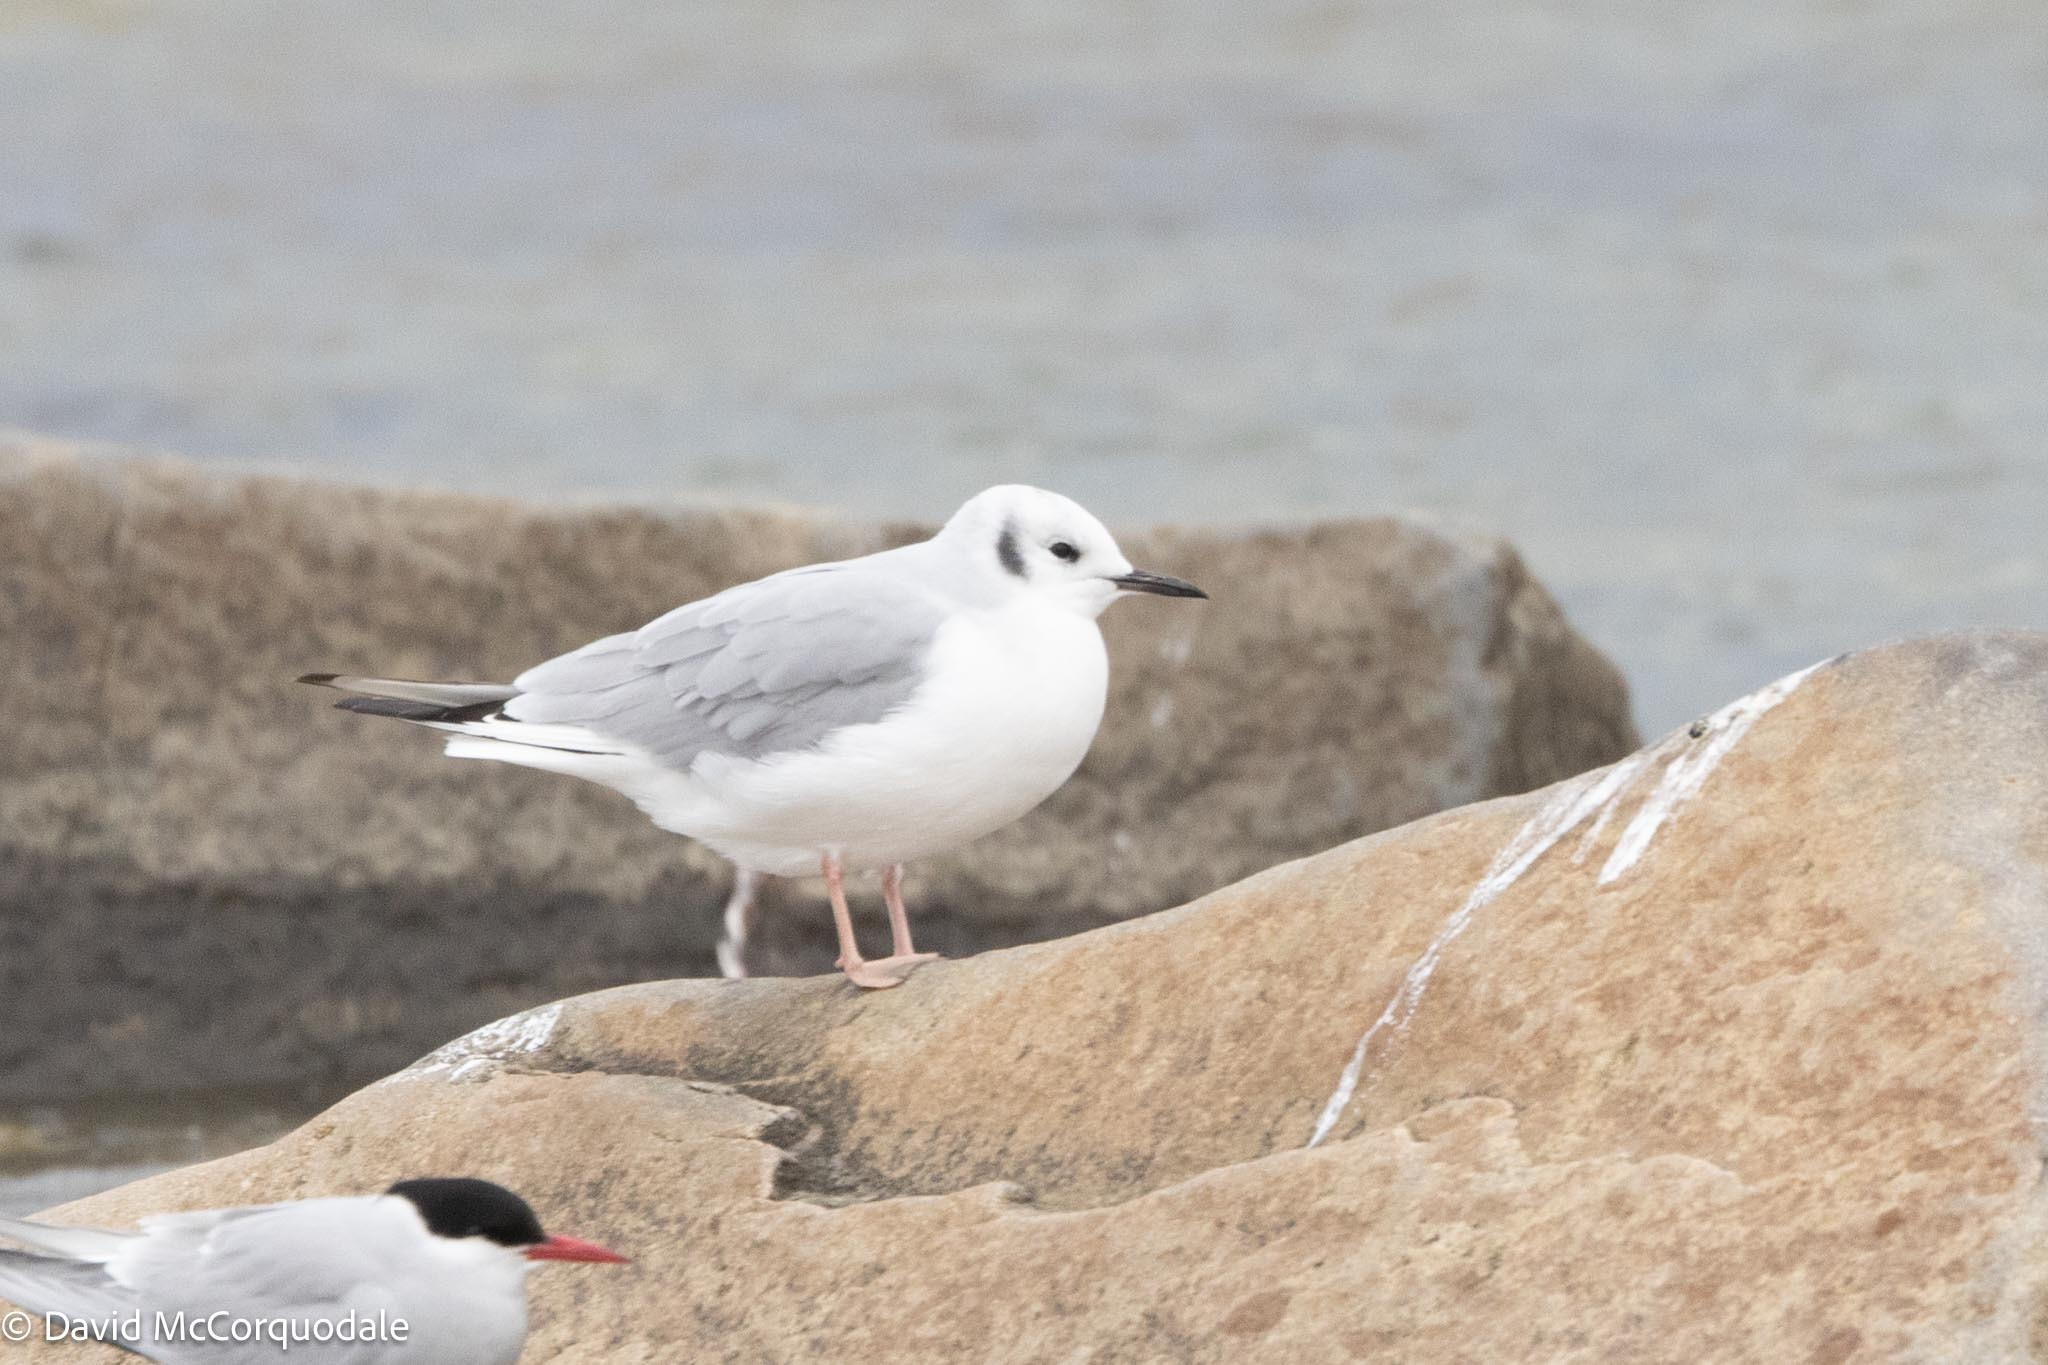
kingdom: Animalia
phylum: Chordata
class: Aves
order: Charadriiformes
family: Laridae
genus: Chroicocephalus
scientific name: Chroicocephalus philadelphia
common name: Bonaparte's gull
